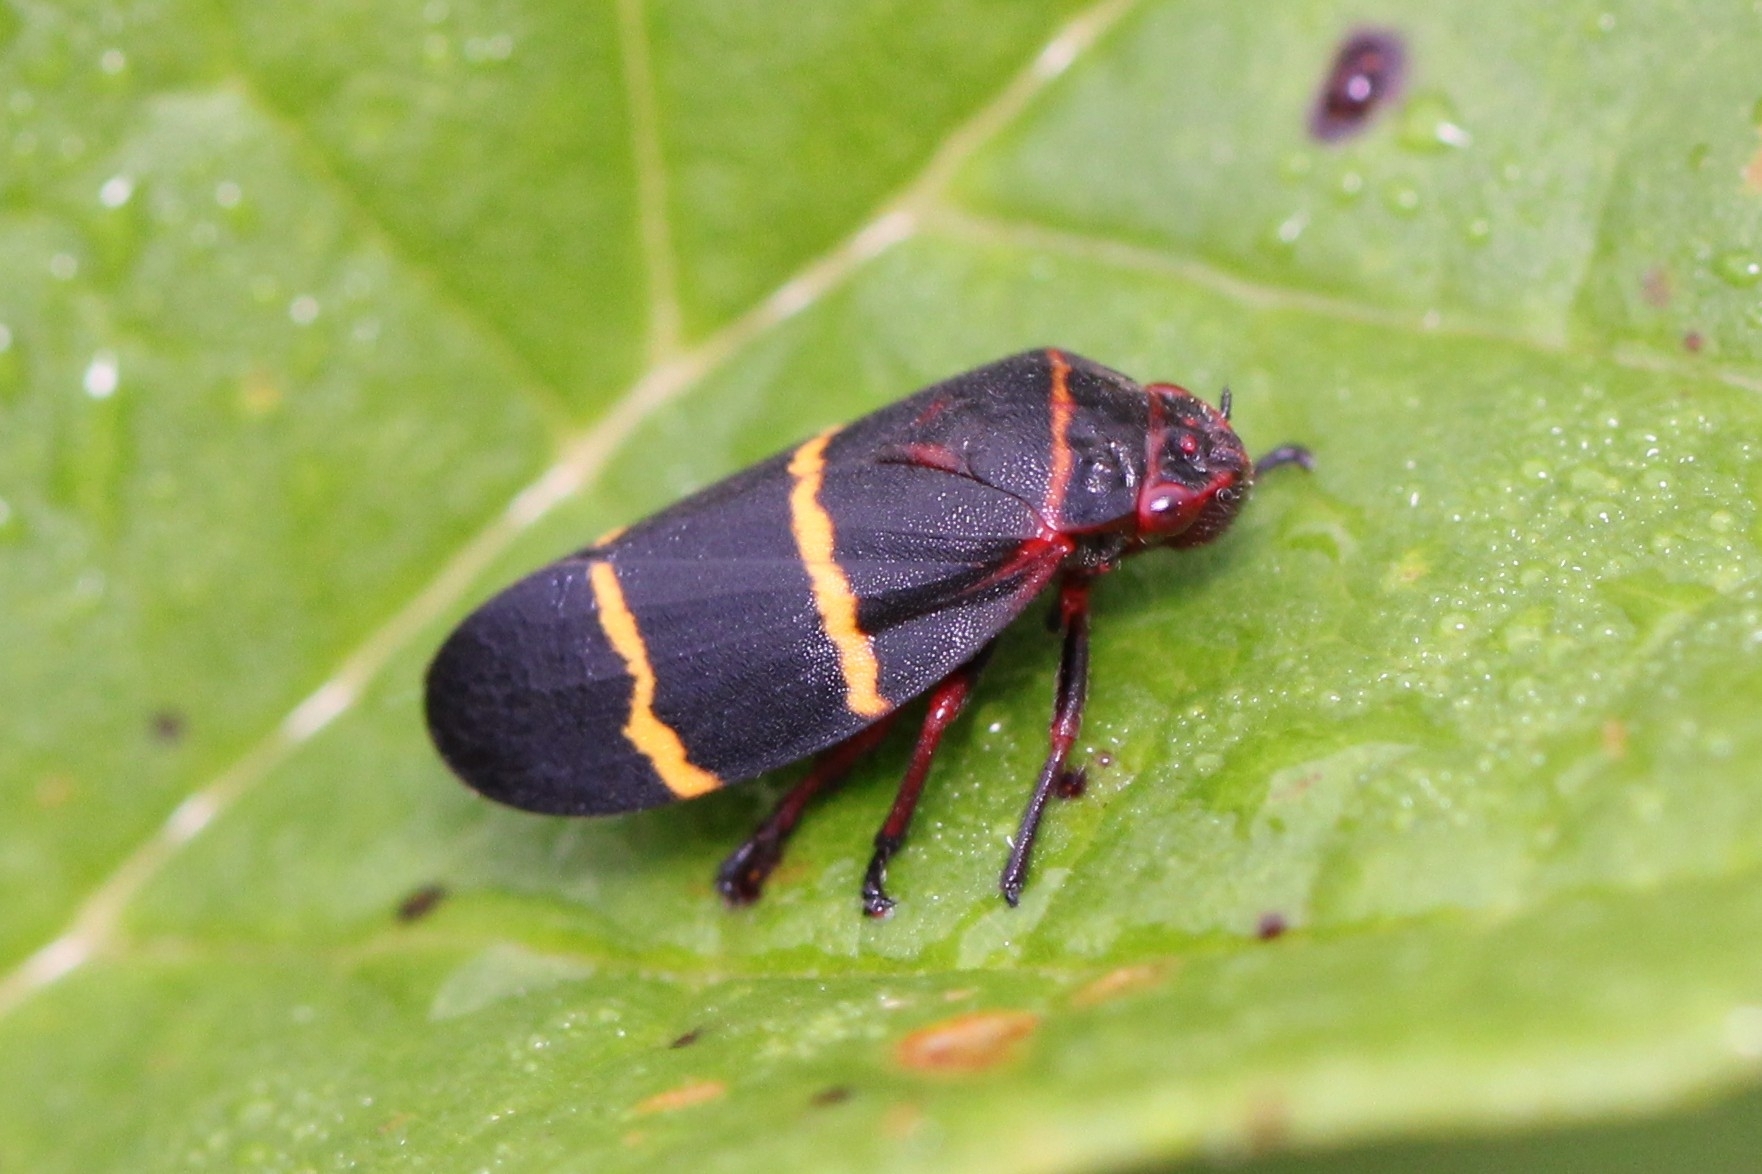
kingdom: Animalia
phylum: Arthropoda
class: Insecta
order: Hemiptera
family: Cercopidae
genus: Prosapia
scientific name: Prosapia bicincta
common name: Twolined spittlebug
